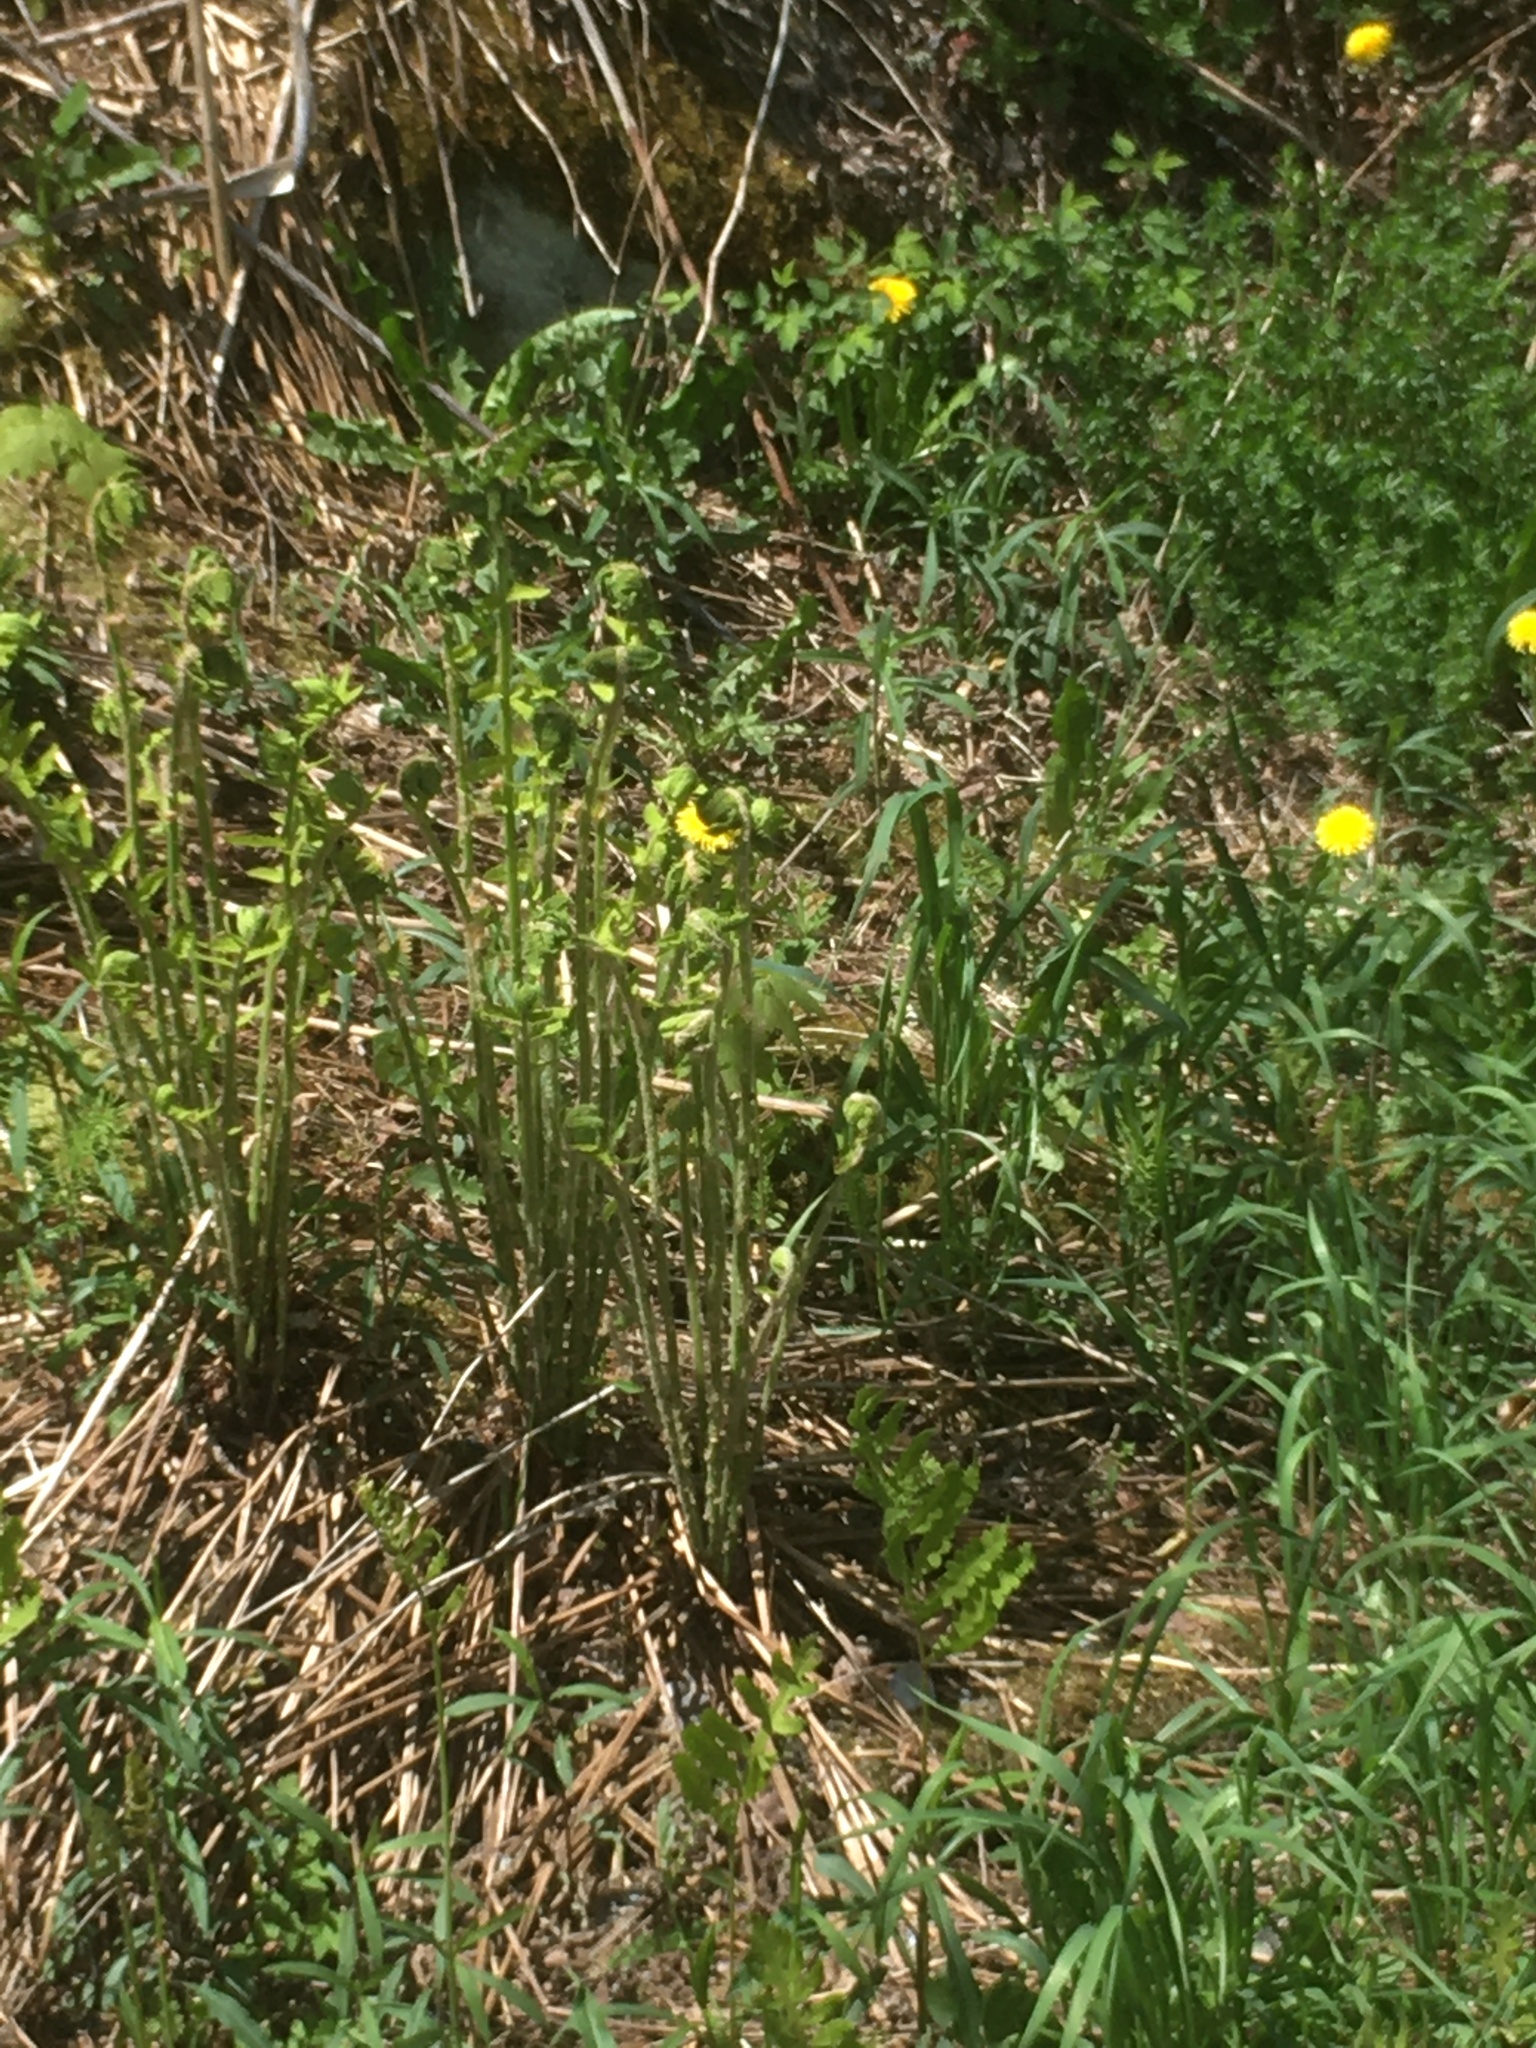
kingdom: Plantae
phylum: Tracheophyta
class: Polypodiopsida
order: Osmundales
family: Osmundaceae
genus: Claytosmunda
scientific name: Claytosmunda claytoniana
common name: Clayton's fern
